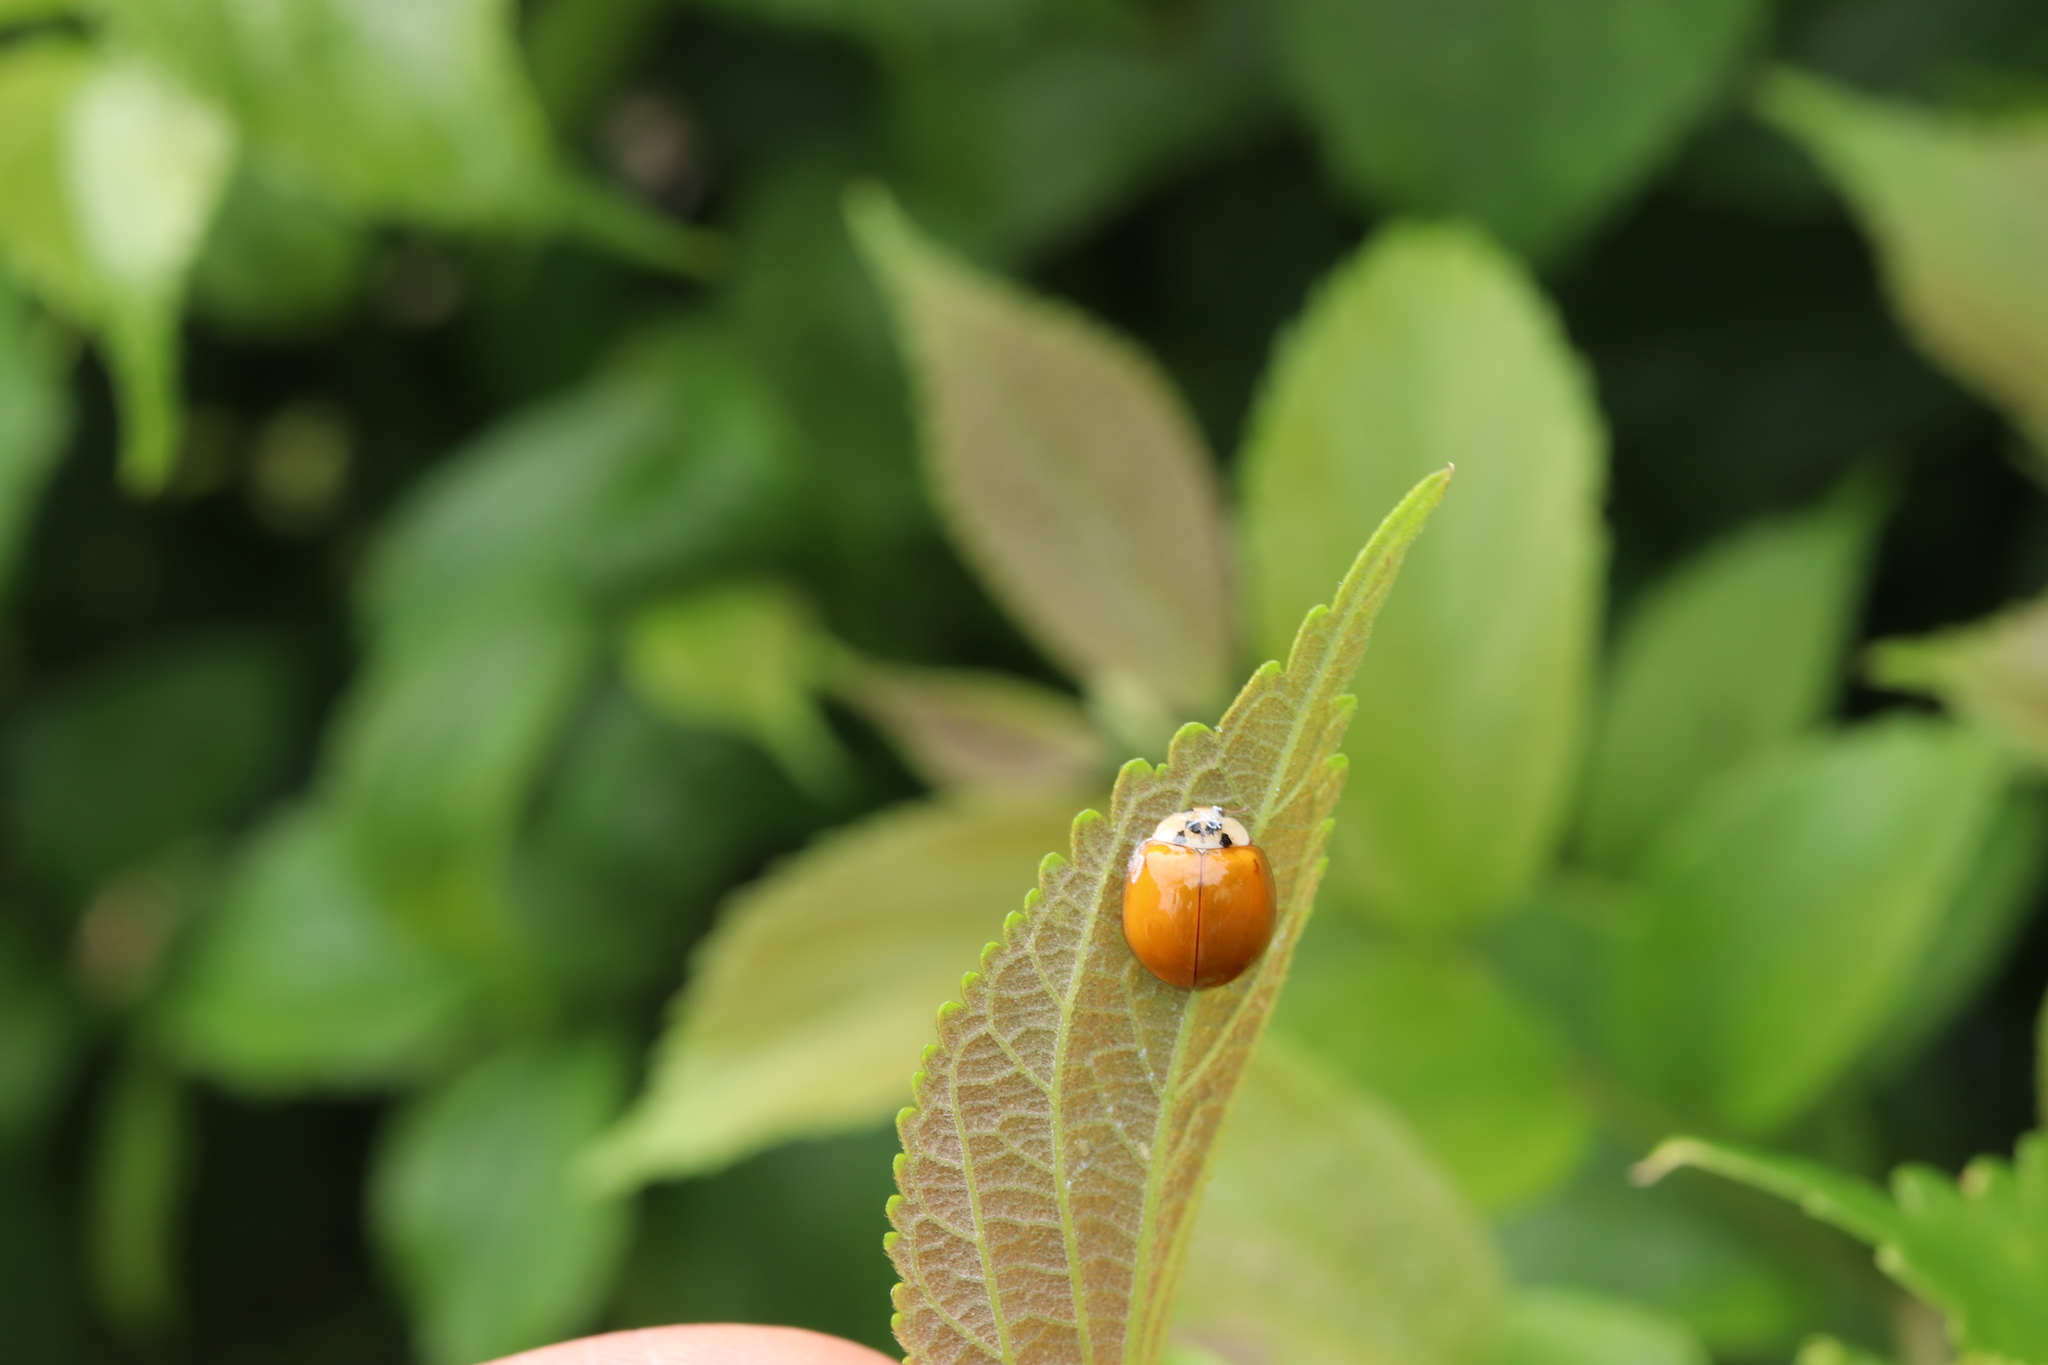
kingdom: Animalia
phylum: Arthropoda
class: Insecta
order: Coleoptera
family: Coccinellidae
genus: Harmonia
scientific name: Harmonia axyridis
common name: Harlequin ladybird
